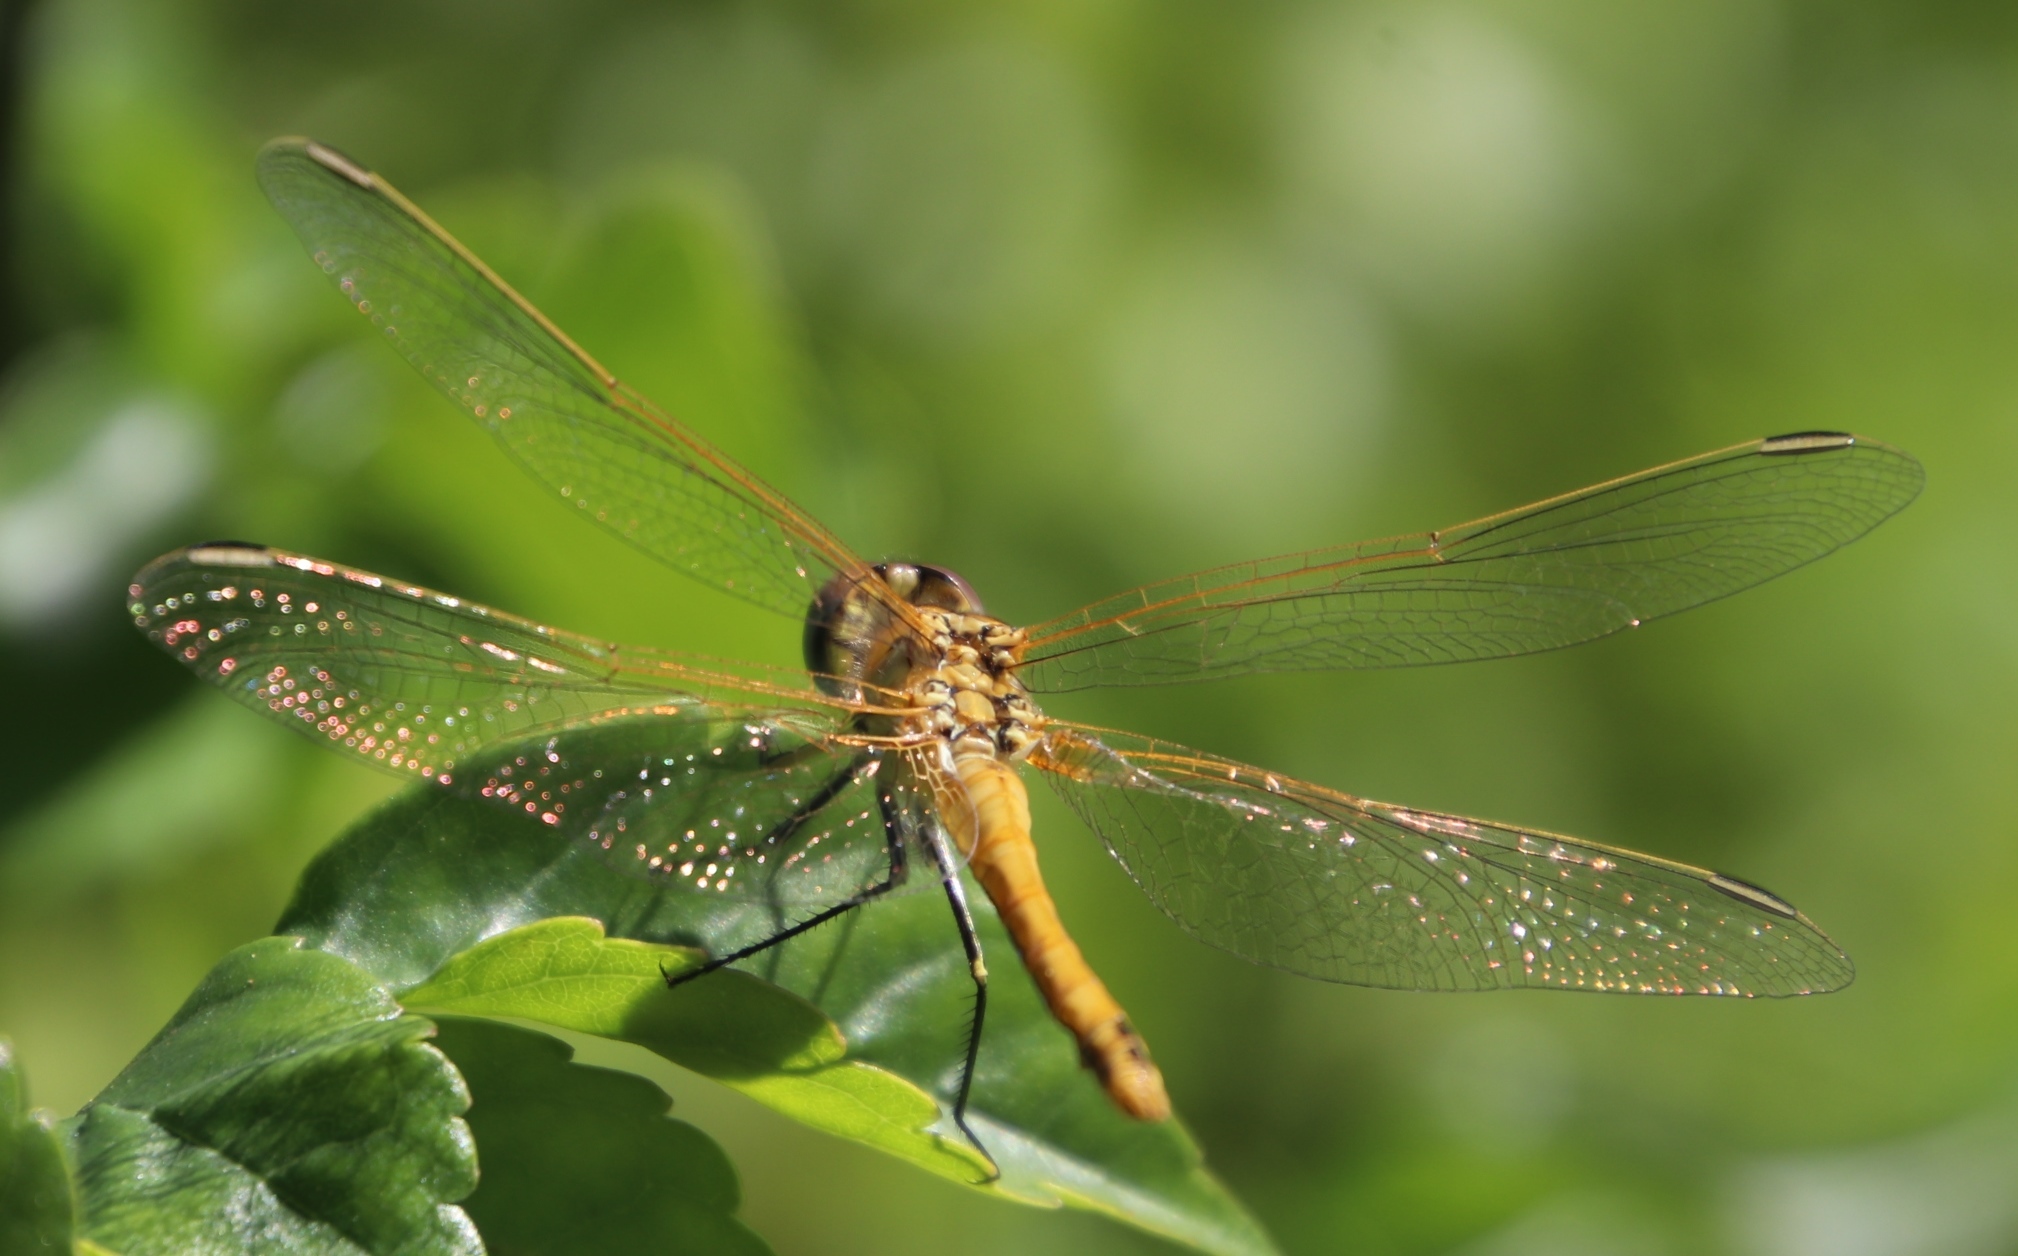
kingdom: Animalia
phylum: Arthropoda
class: Insecta
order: Odonata
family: Libellulidae
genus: Sympetrum
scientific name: Sympetrum fonscolombii
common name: Red-veined darter
